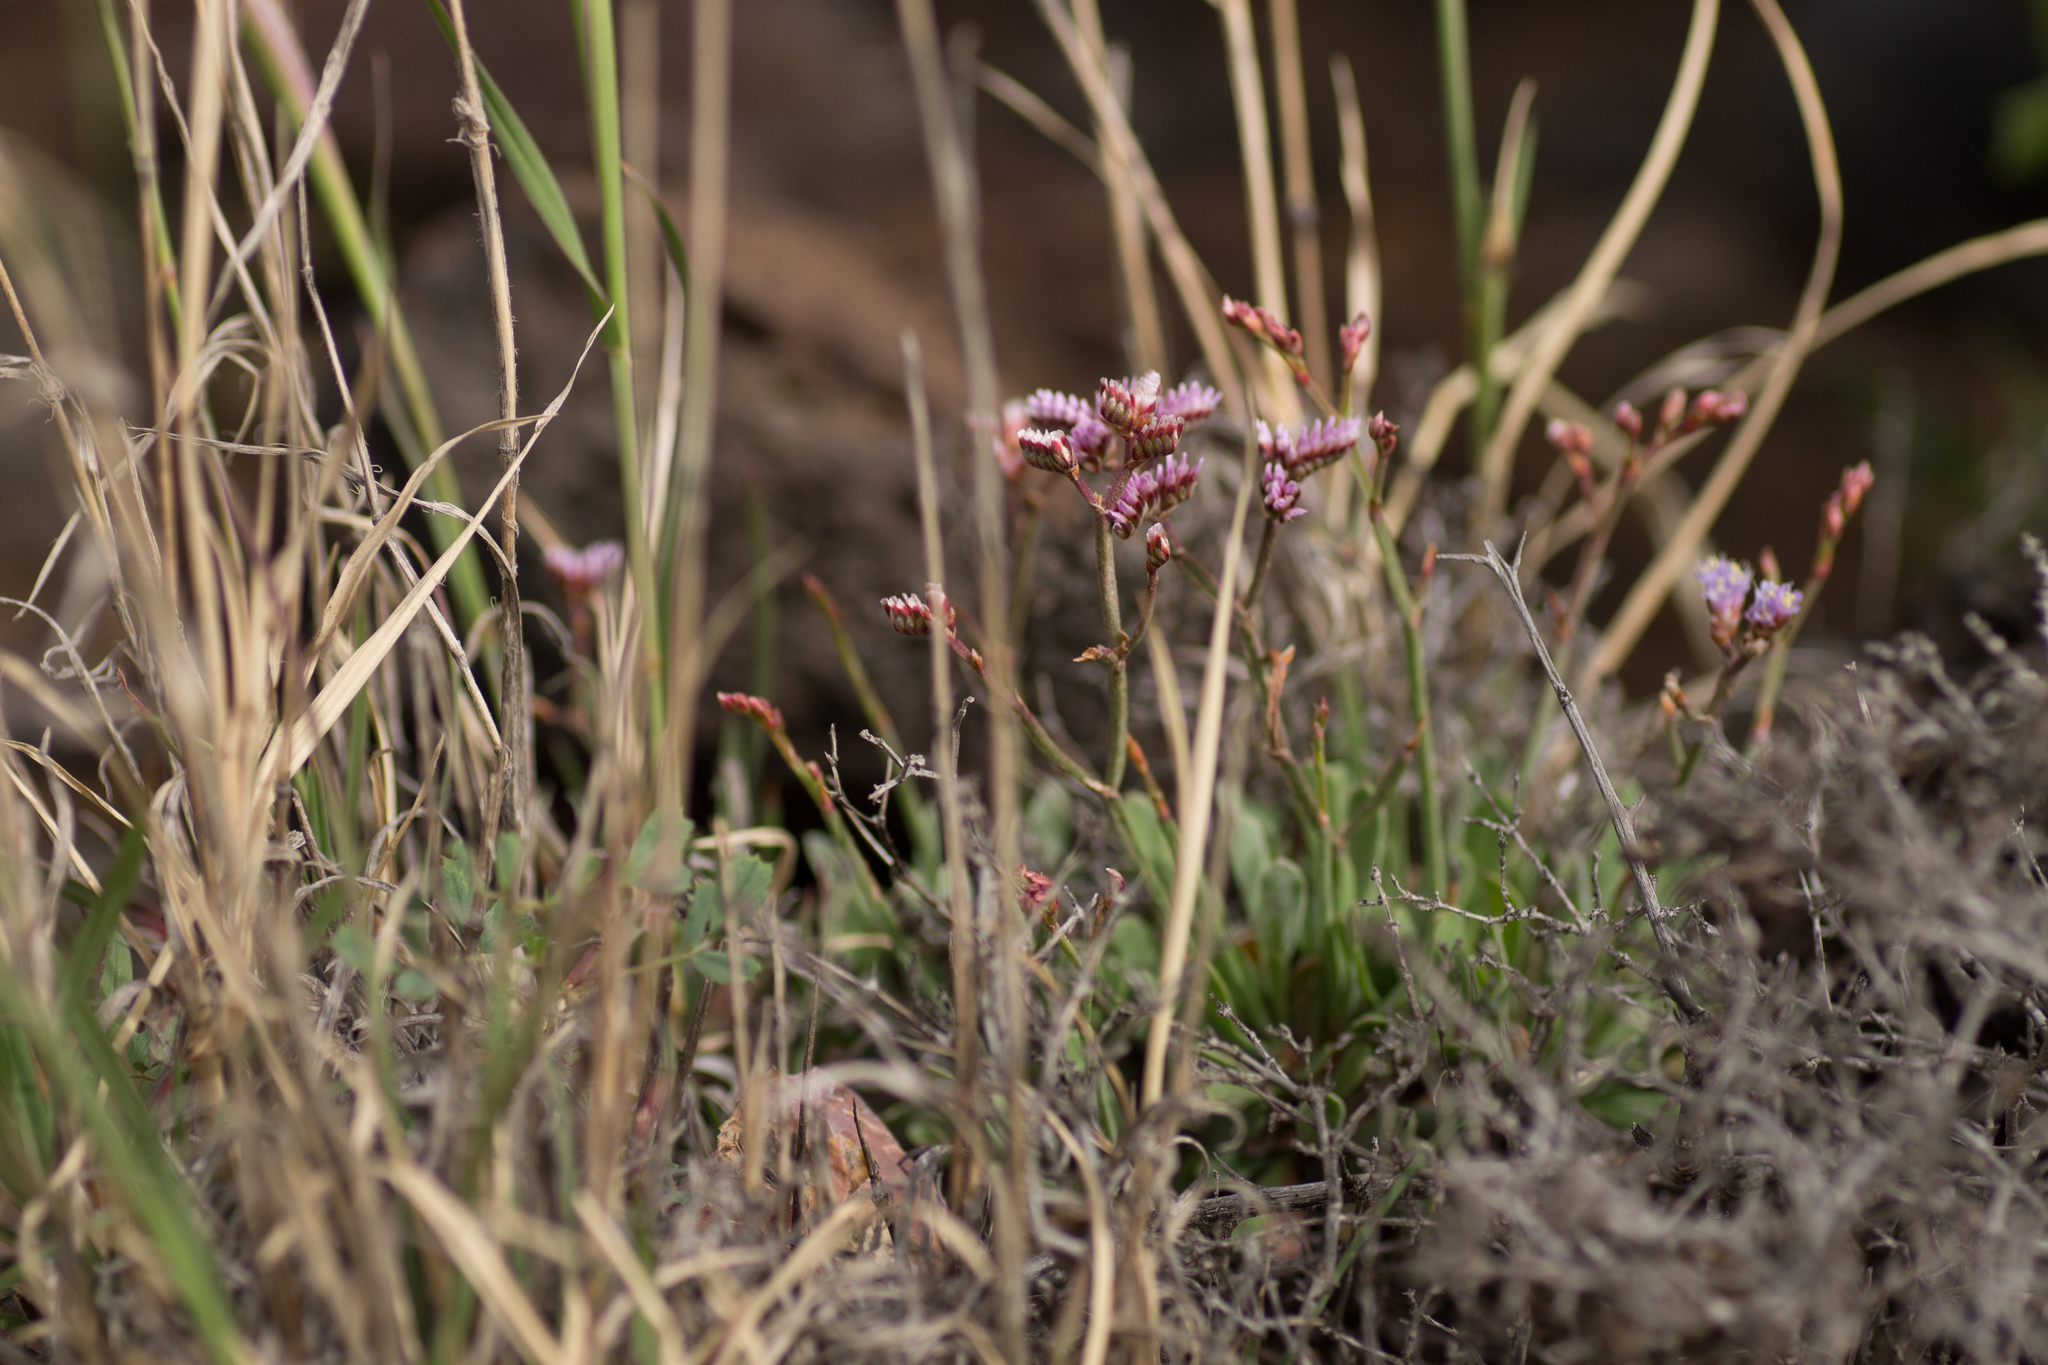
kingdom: Plantae
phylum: Tracheophyta
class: Magnoliopsida
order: Caryophyllales
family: Plumbaginaceae
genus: Limonium
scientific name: Limonium pectinatum
